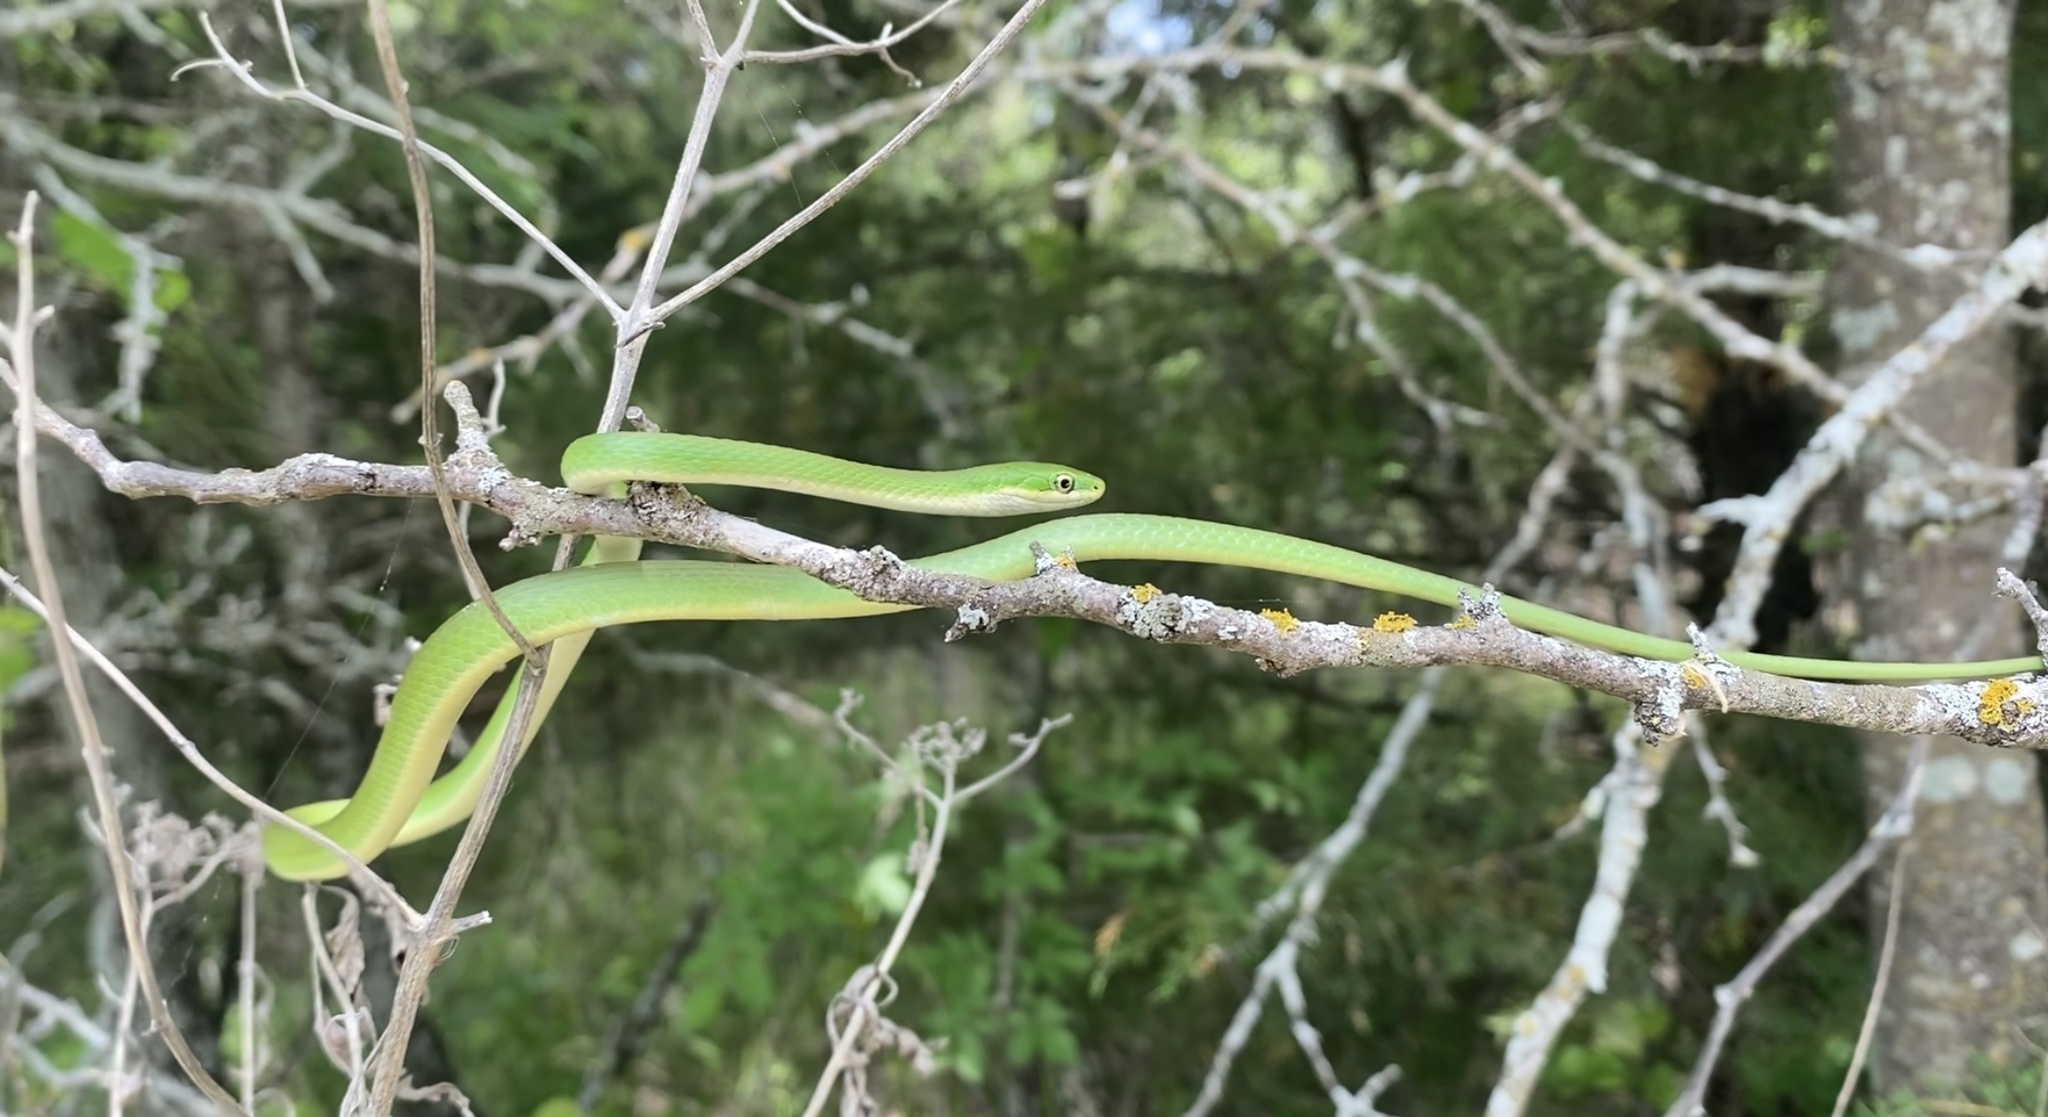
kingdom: Animalia
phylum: Chordata
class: Squamata
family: Colubridae
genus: Opheodrys
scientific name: Opheodrys aestivus
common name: Rough greensnake
